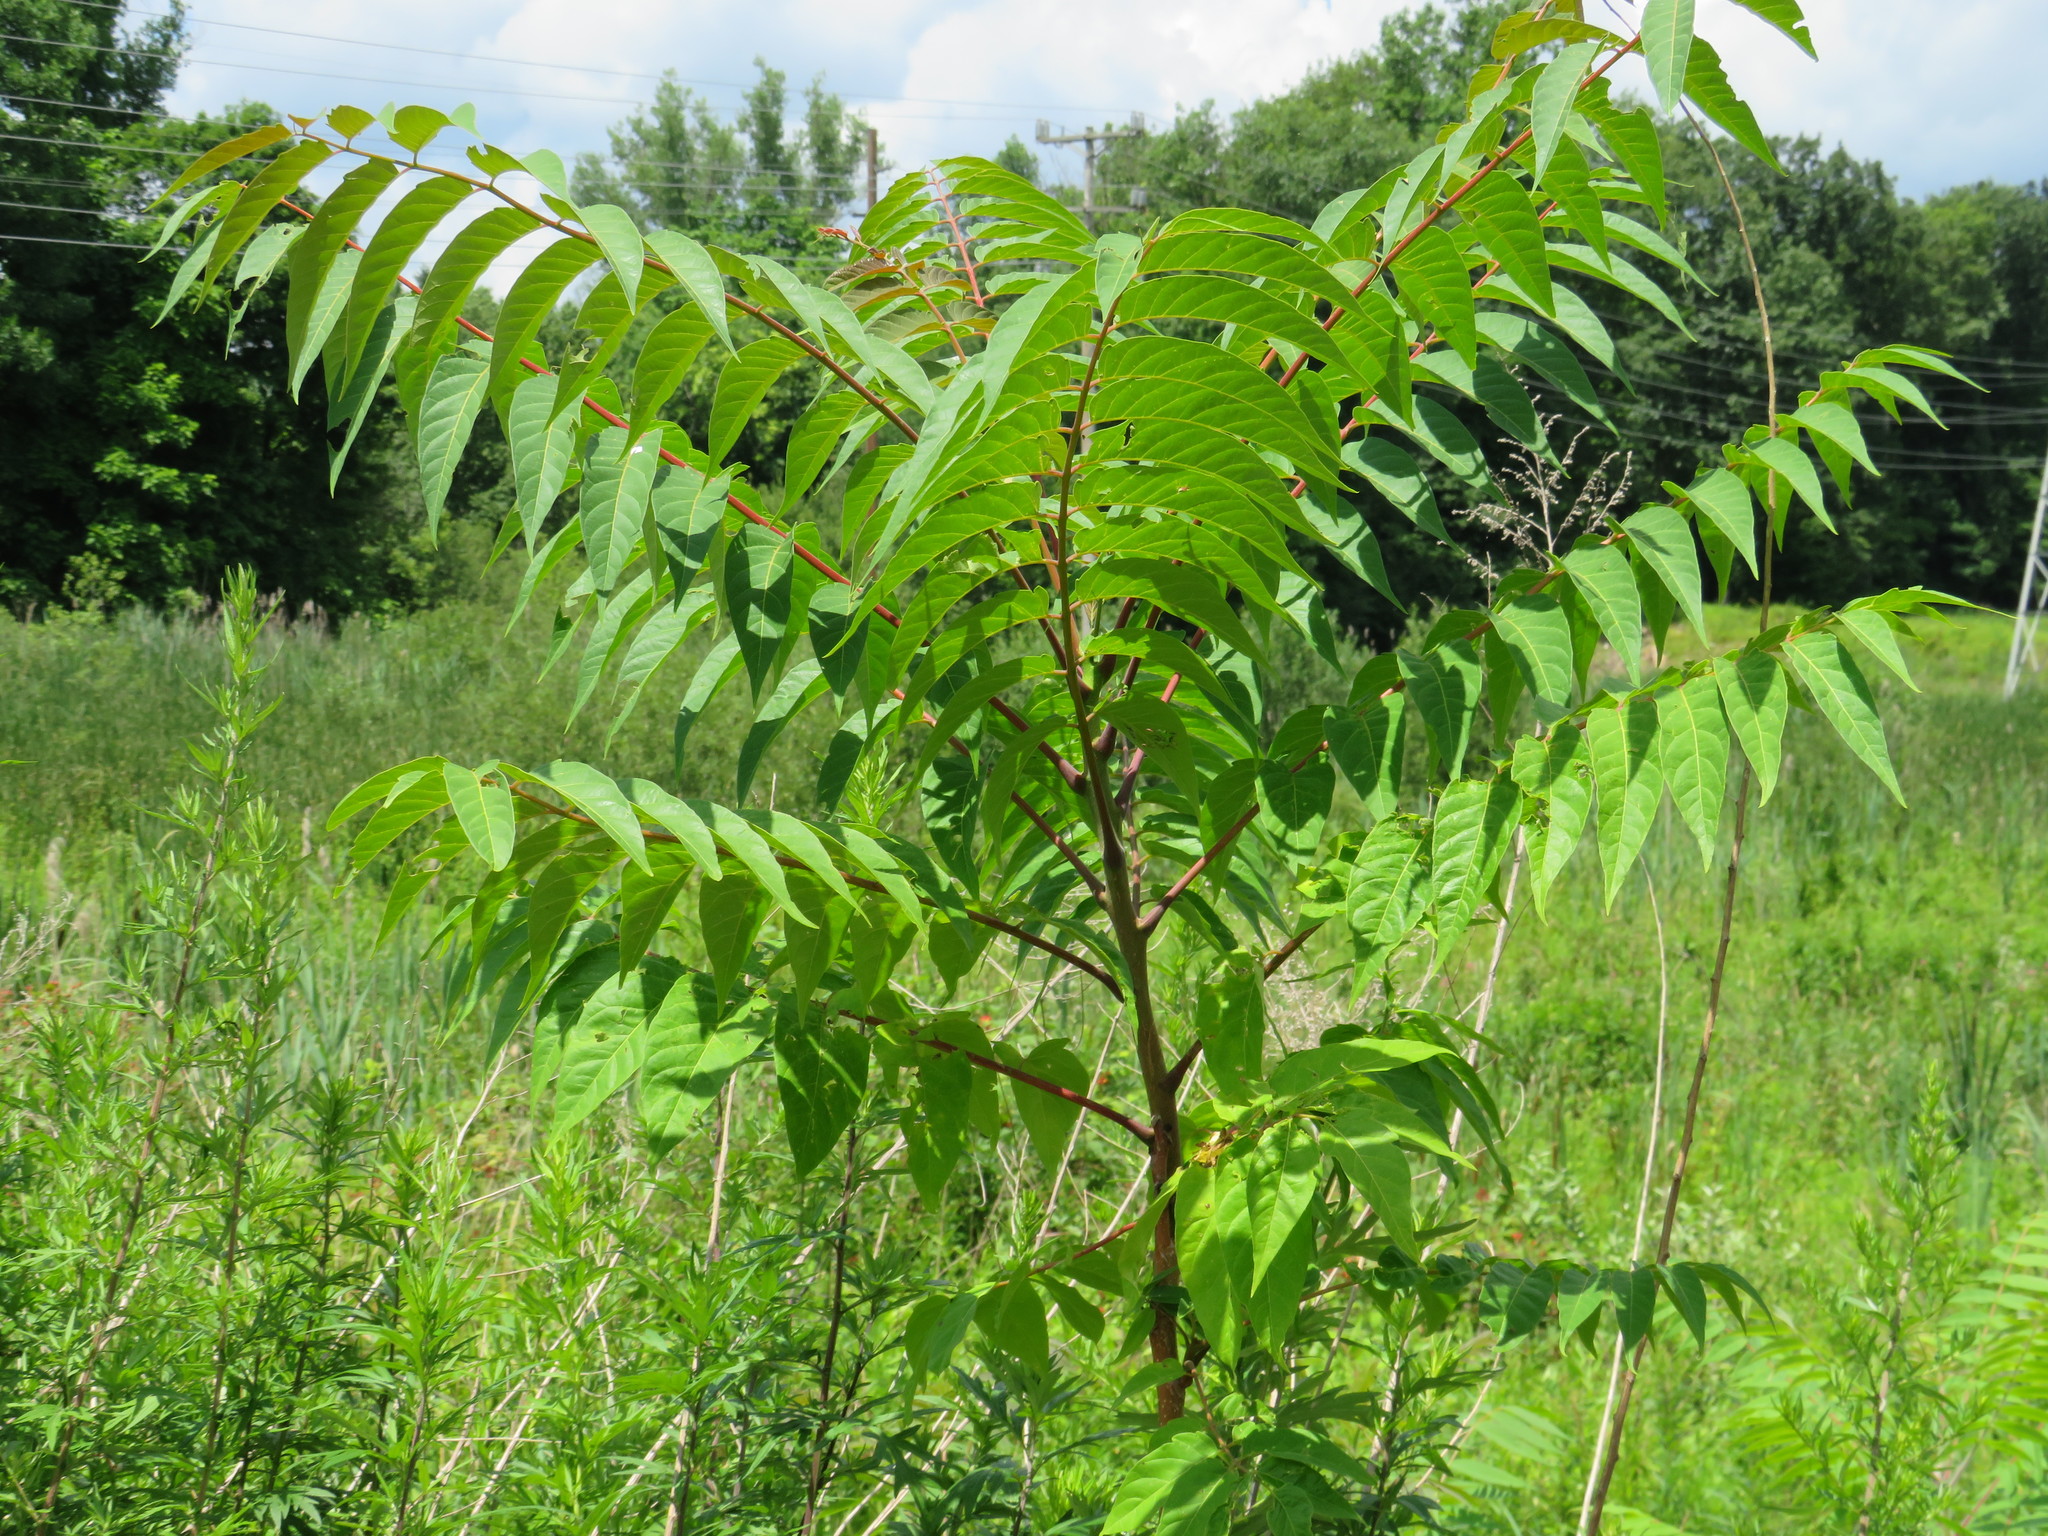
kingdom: Plantae
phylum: Tracheophyta
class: Magnoliopsida
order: Sapindales
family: Simaroubaceae
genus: Ailanthus
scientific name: Ailanthus altissima
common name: Tree-of-heaven
